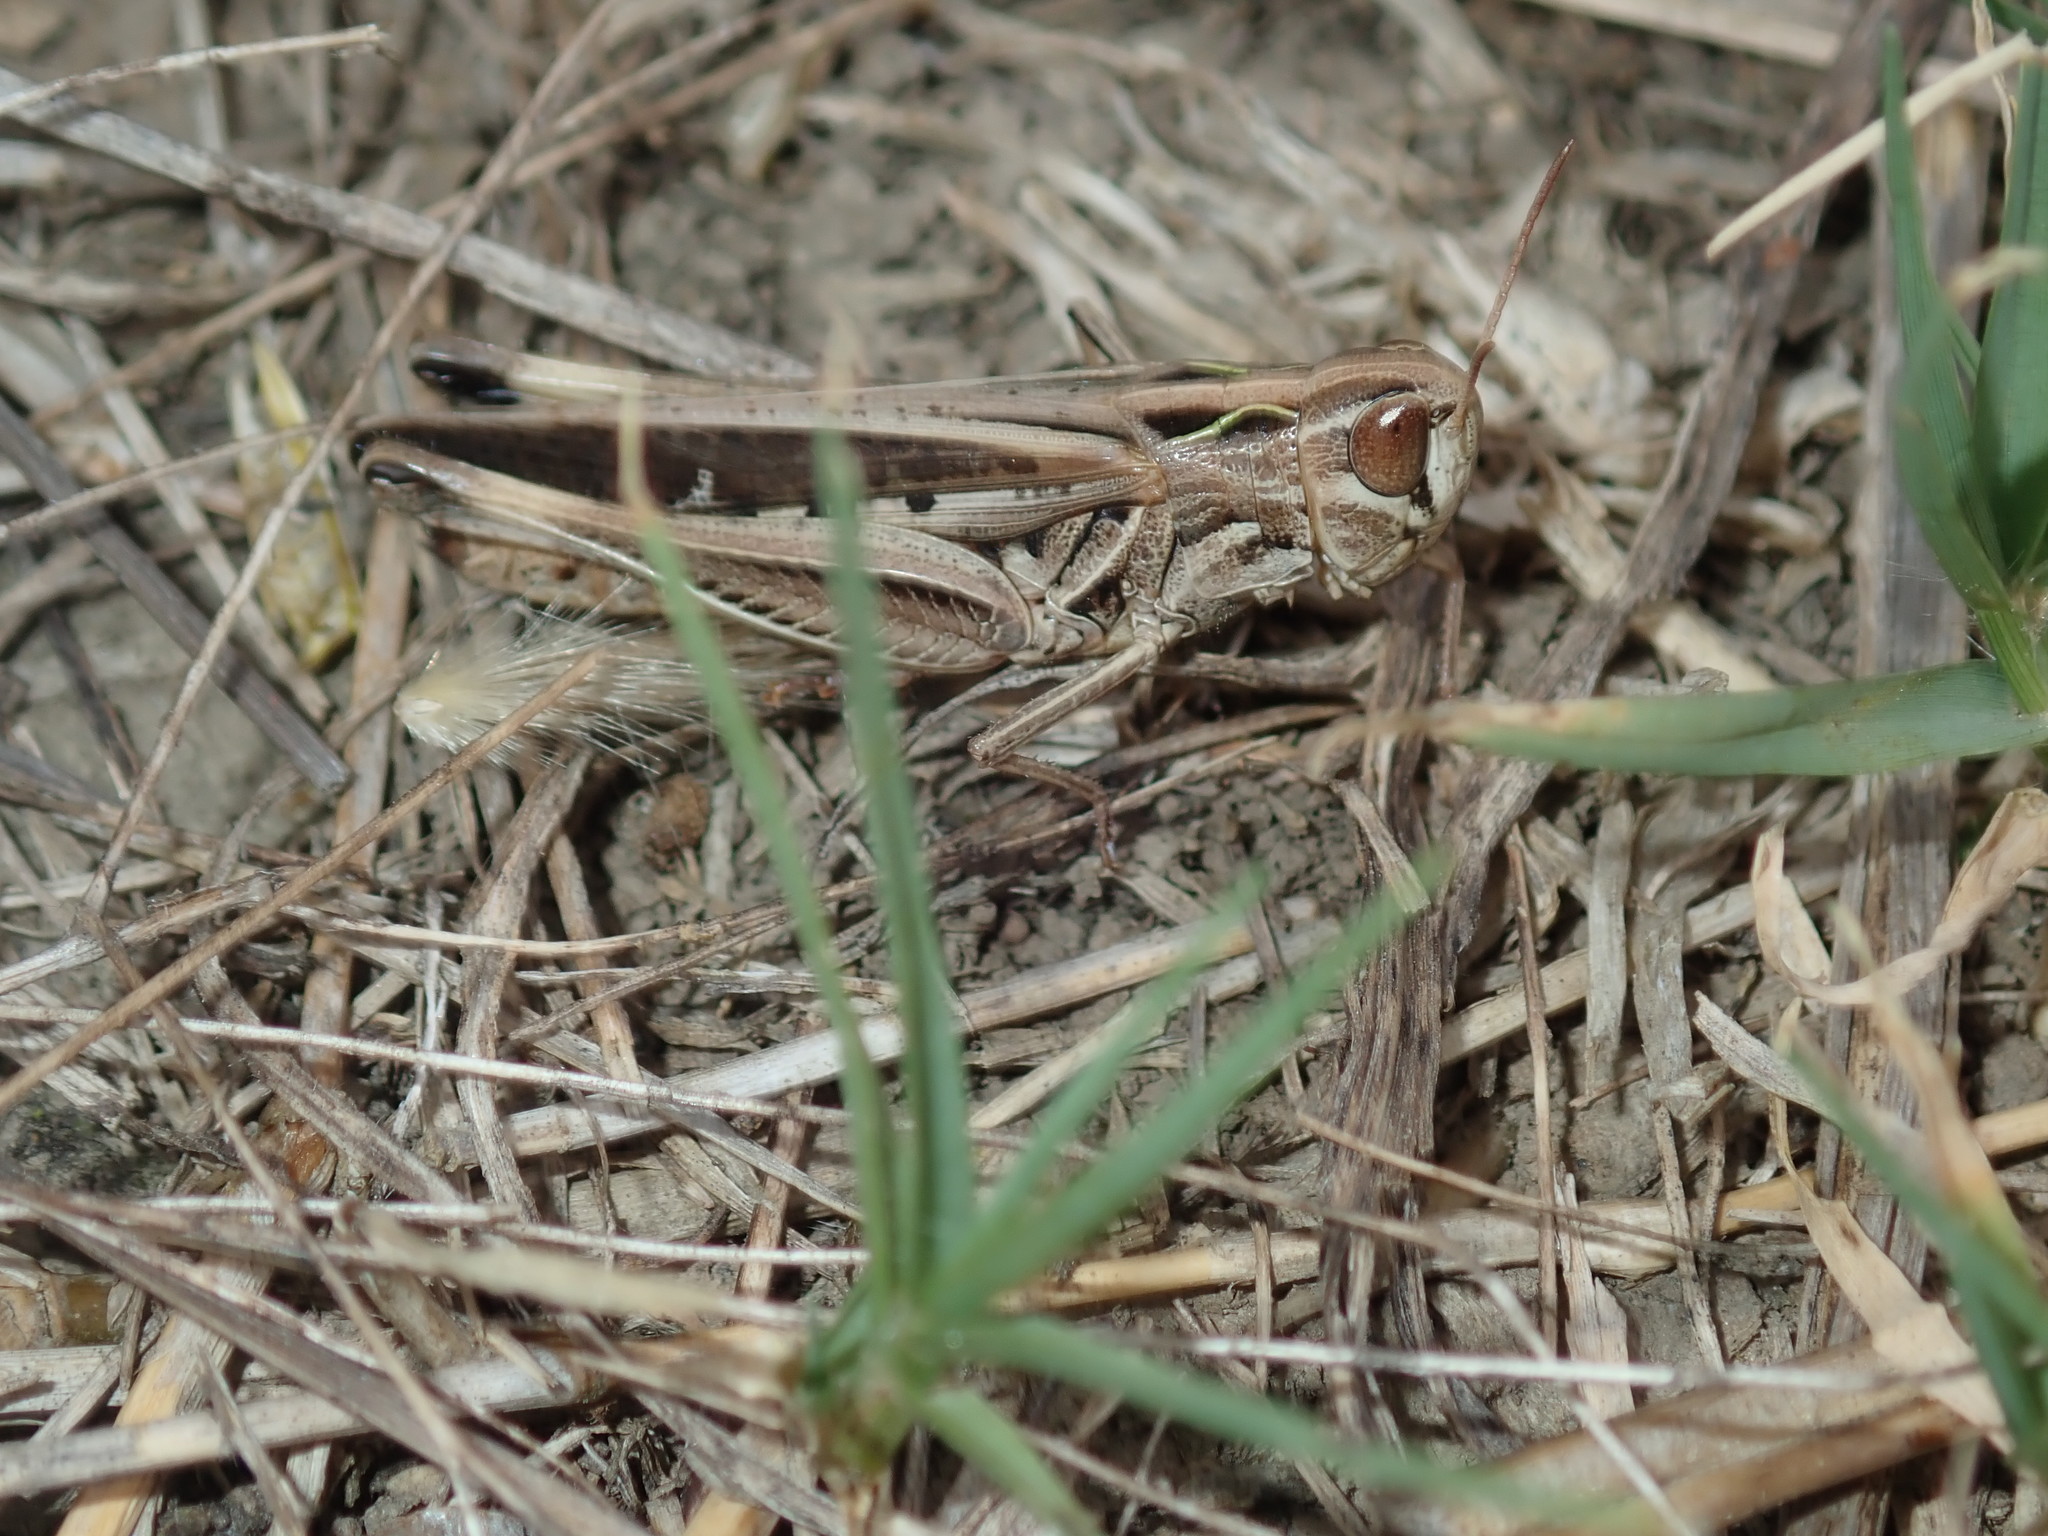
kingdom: Animalia
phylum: Arthropoda
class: Insecta
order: Orthoptera
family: Acrididae
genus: Caledia
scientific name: Caledia captiva
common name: Caledia
